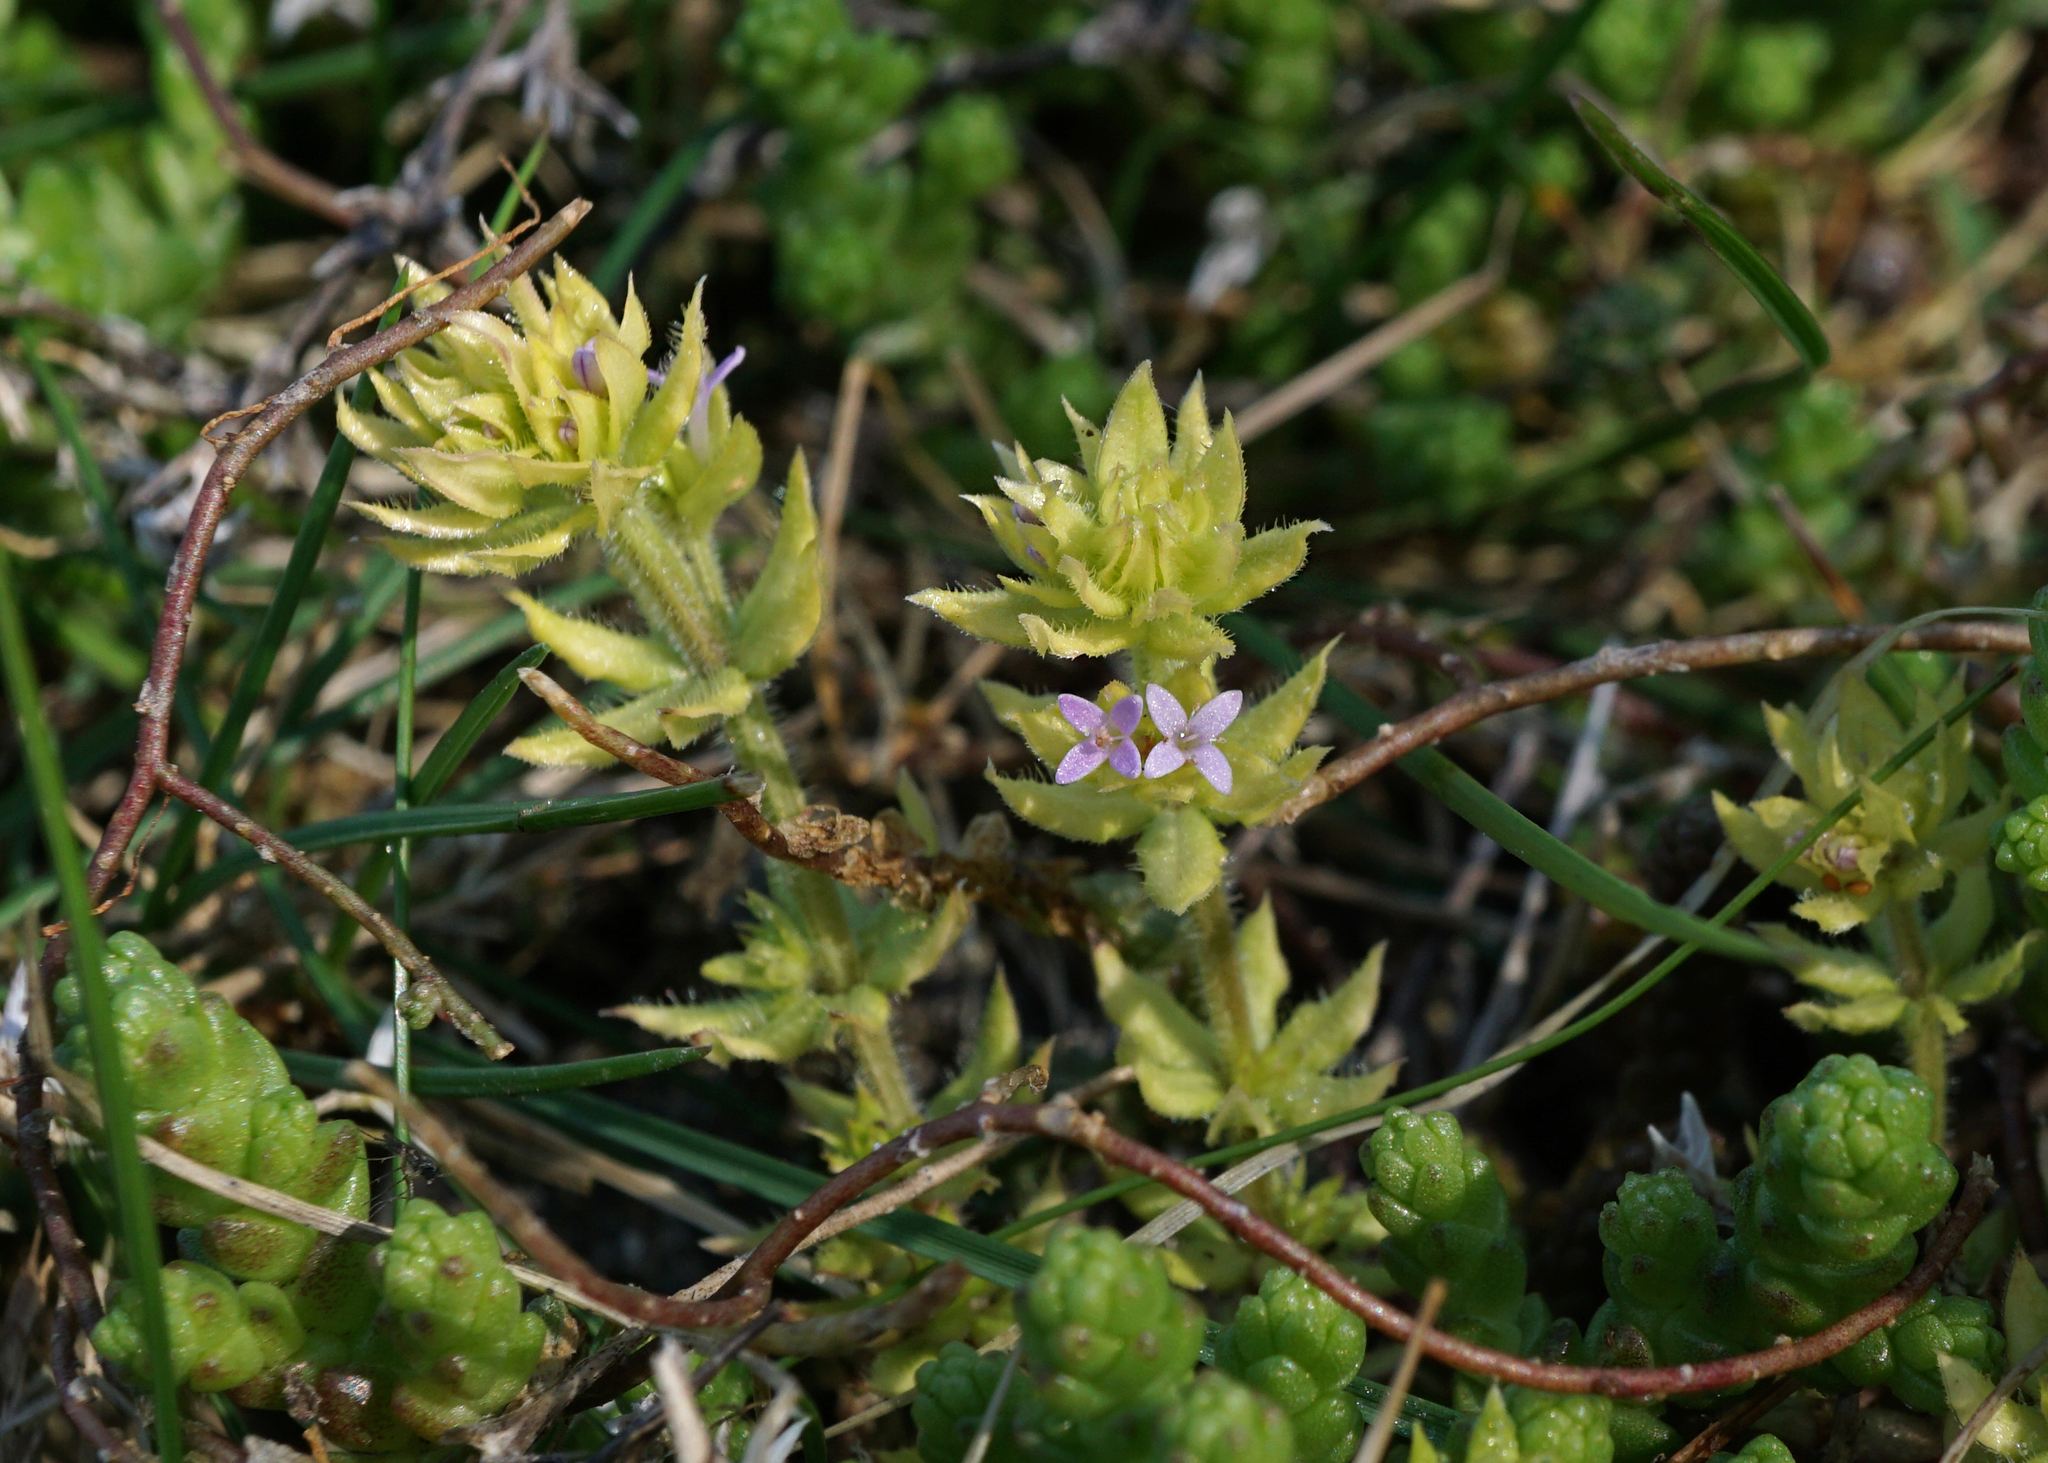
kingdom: Plantae
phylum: Tracheophyta
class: Magnoliopsida
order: Gentianales
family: Rubiaceae
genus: Sherardia
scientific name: Sherardia arvensis
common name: Field madder
